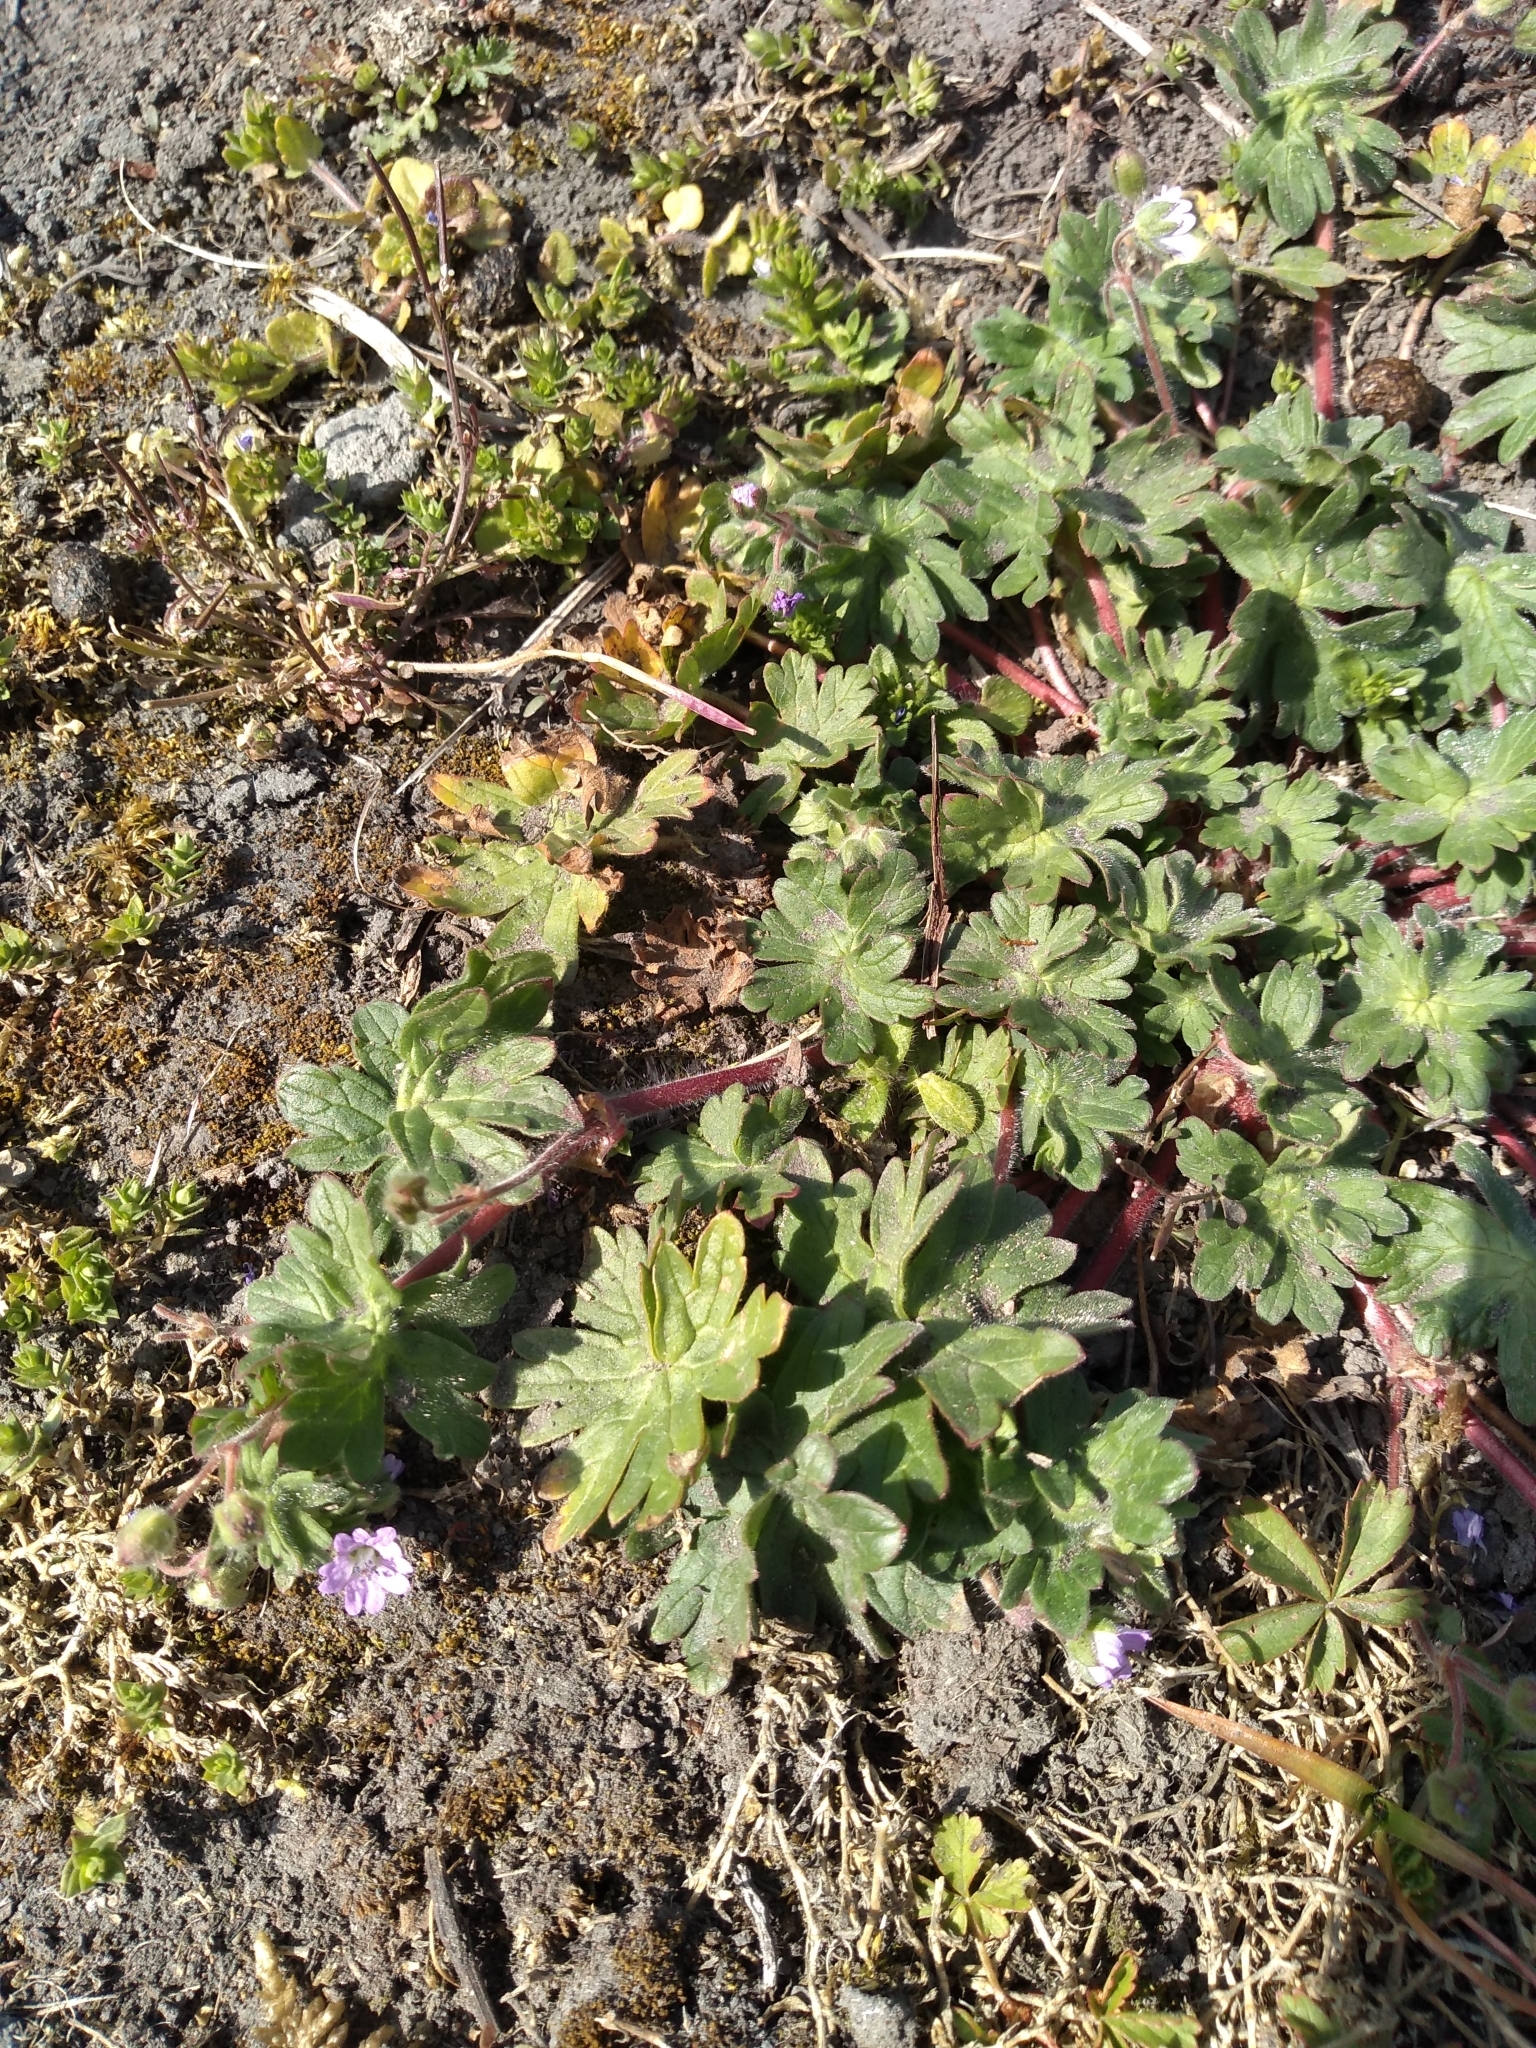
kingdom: Plantae
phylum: Tracheophyta
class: Magnoliopsida
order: Geraniales
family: Geraniaceae
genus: Geranium
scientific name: Geranium molle
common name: Dove's-foot crane's-bill
